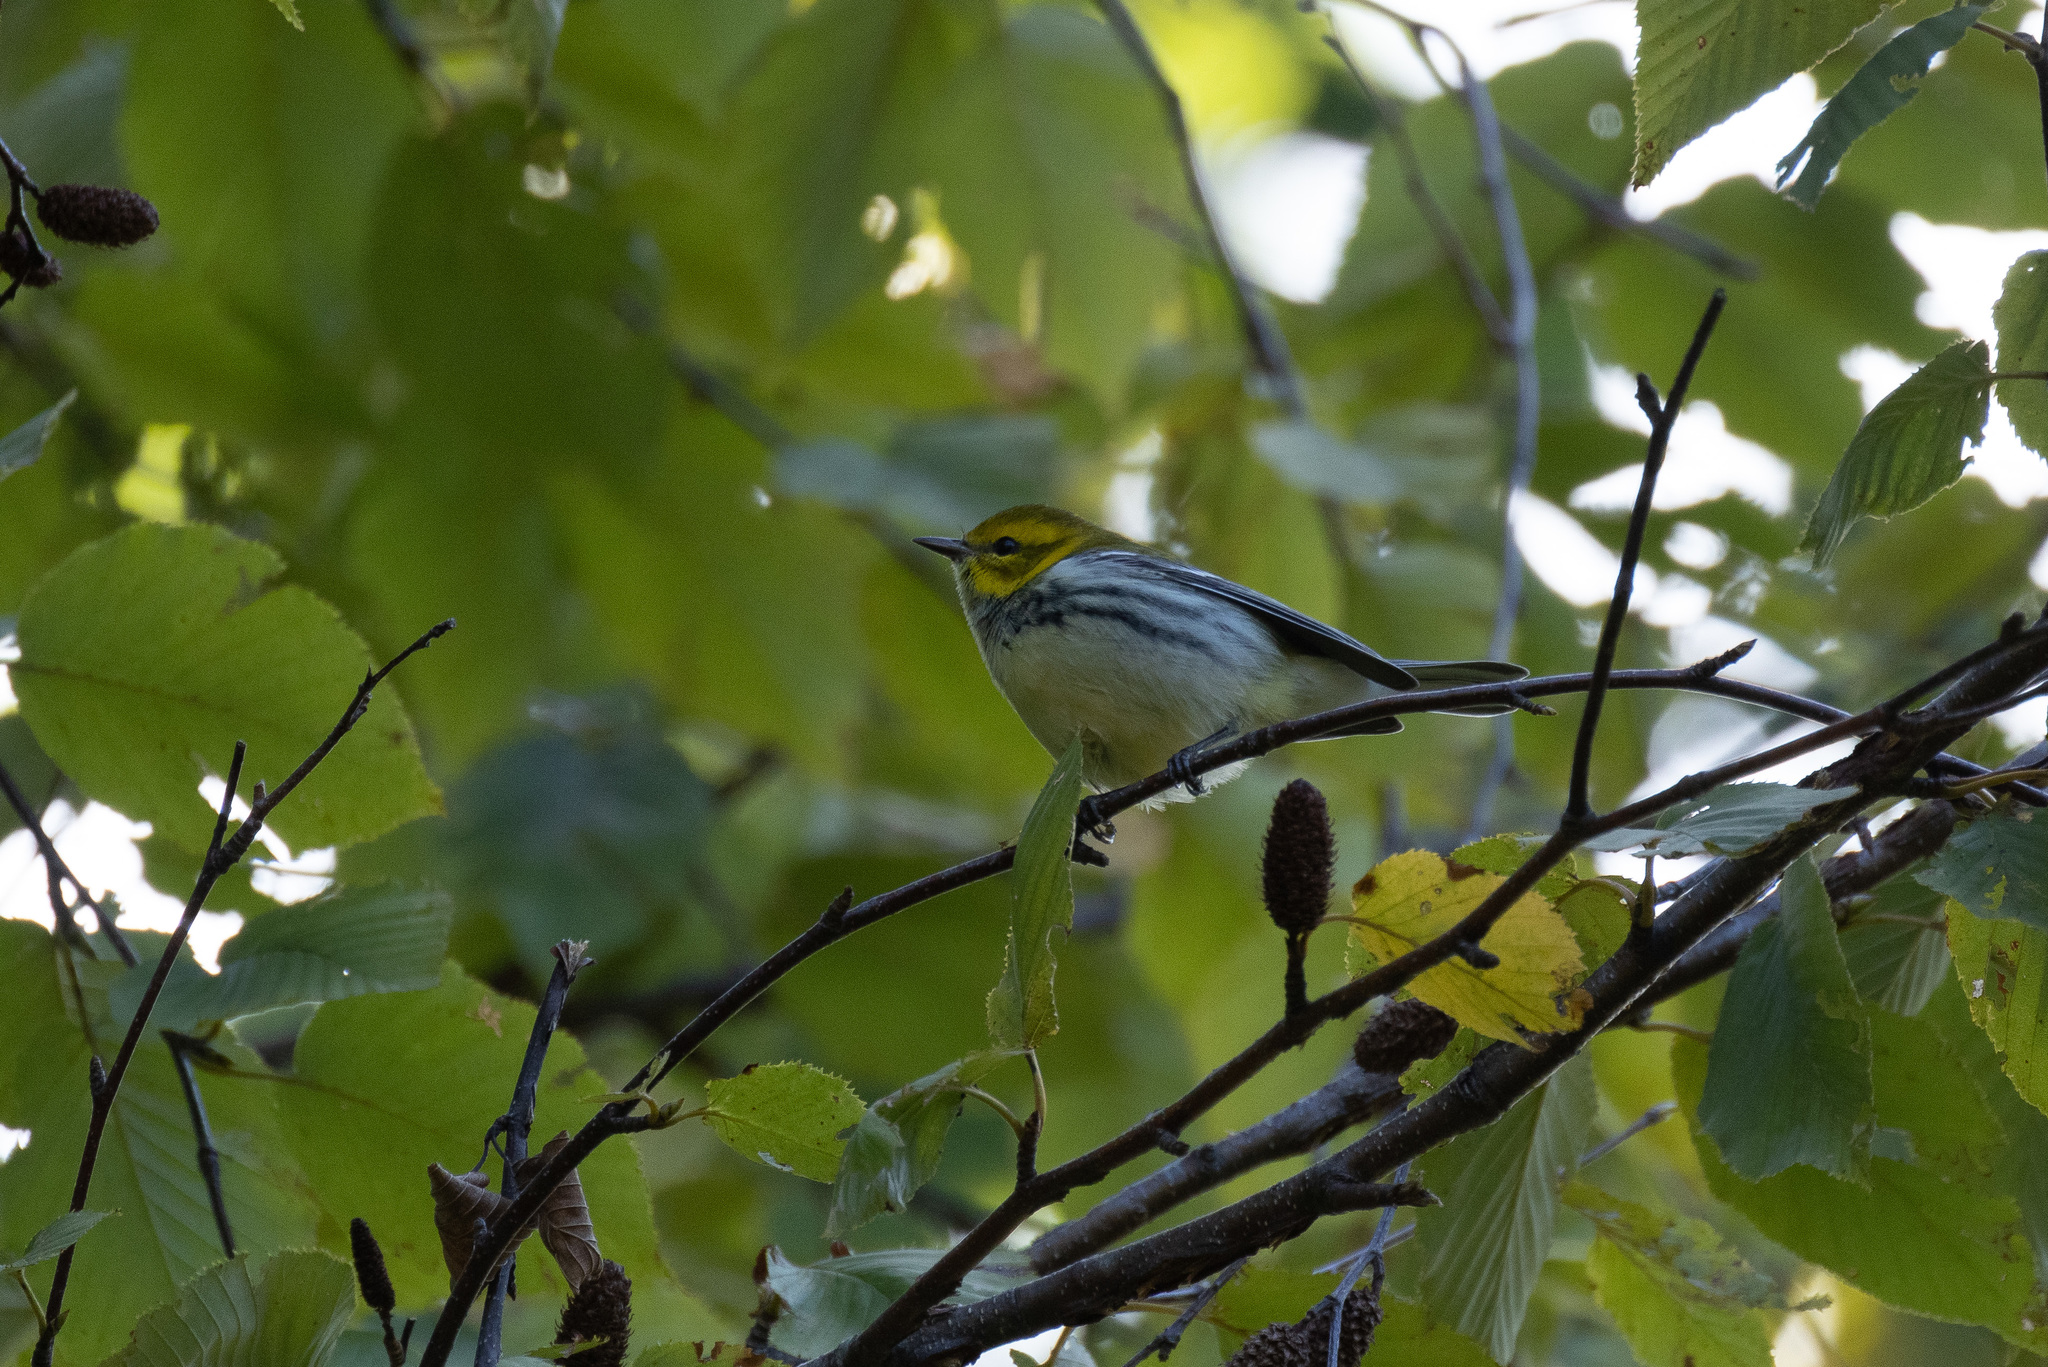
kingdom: Animalia
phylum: Chordata
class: Aves
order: Passeriformes
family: Parulidae
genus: Setophaga
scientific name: Setophaga virens
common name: Black-throated green warbler
